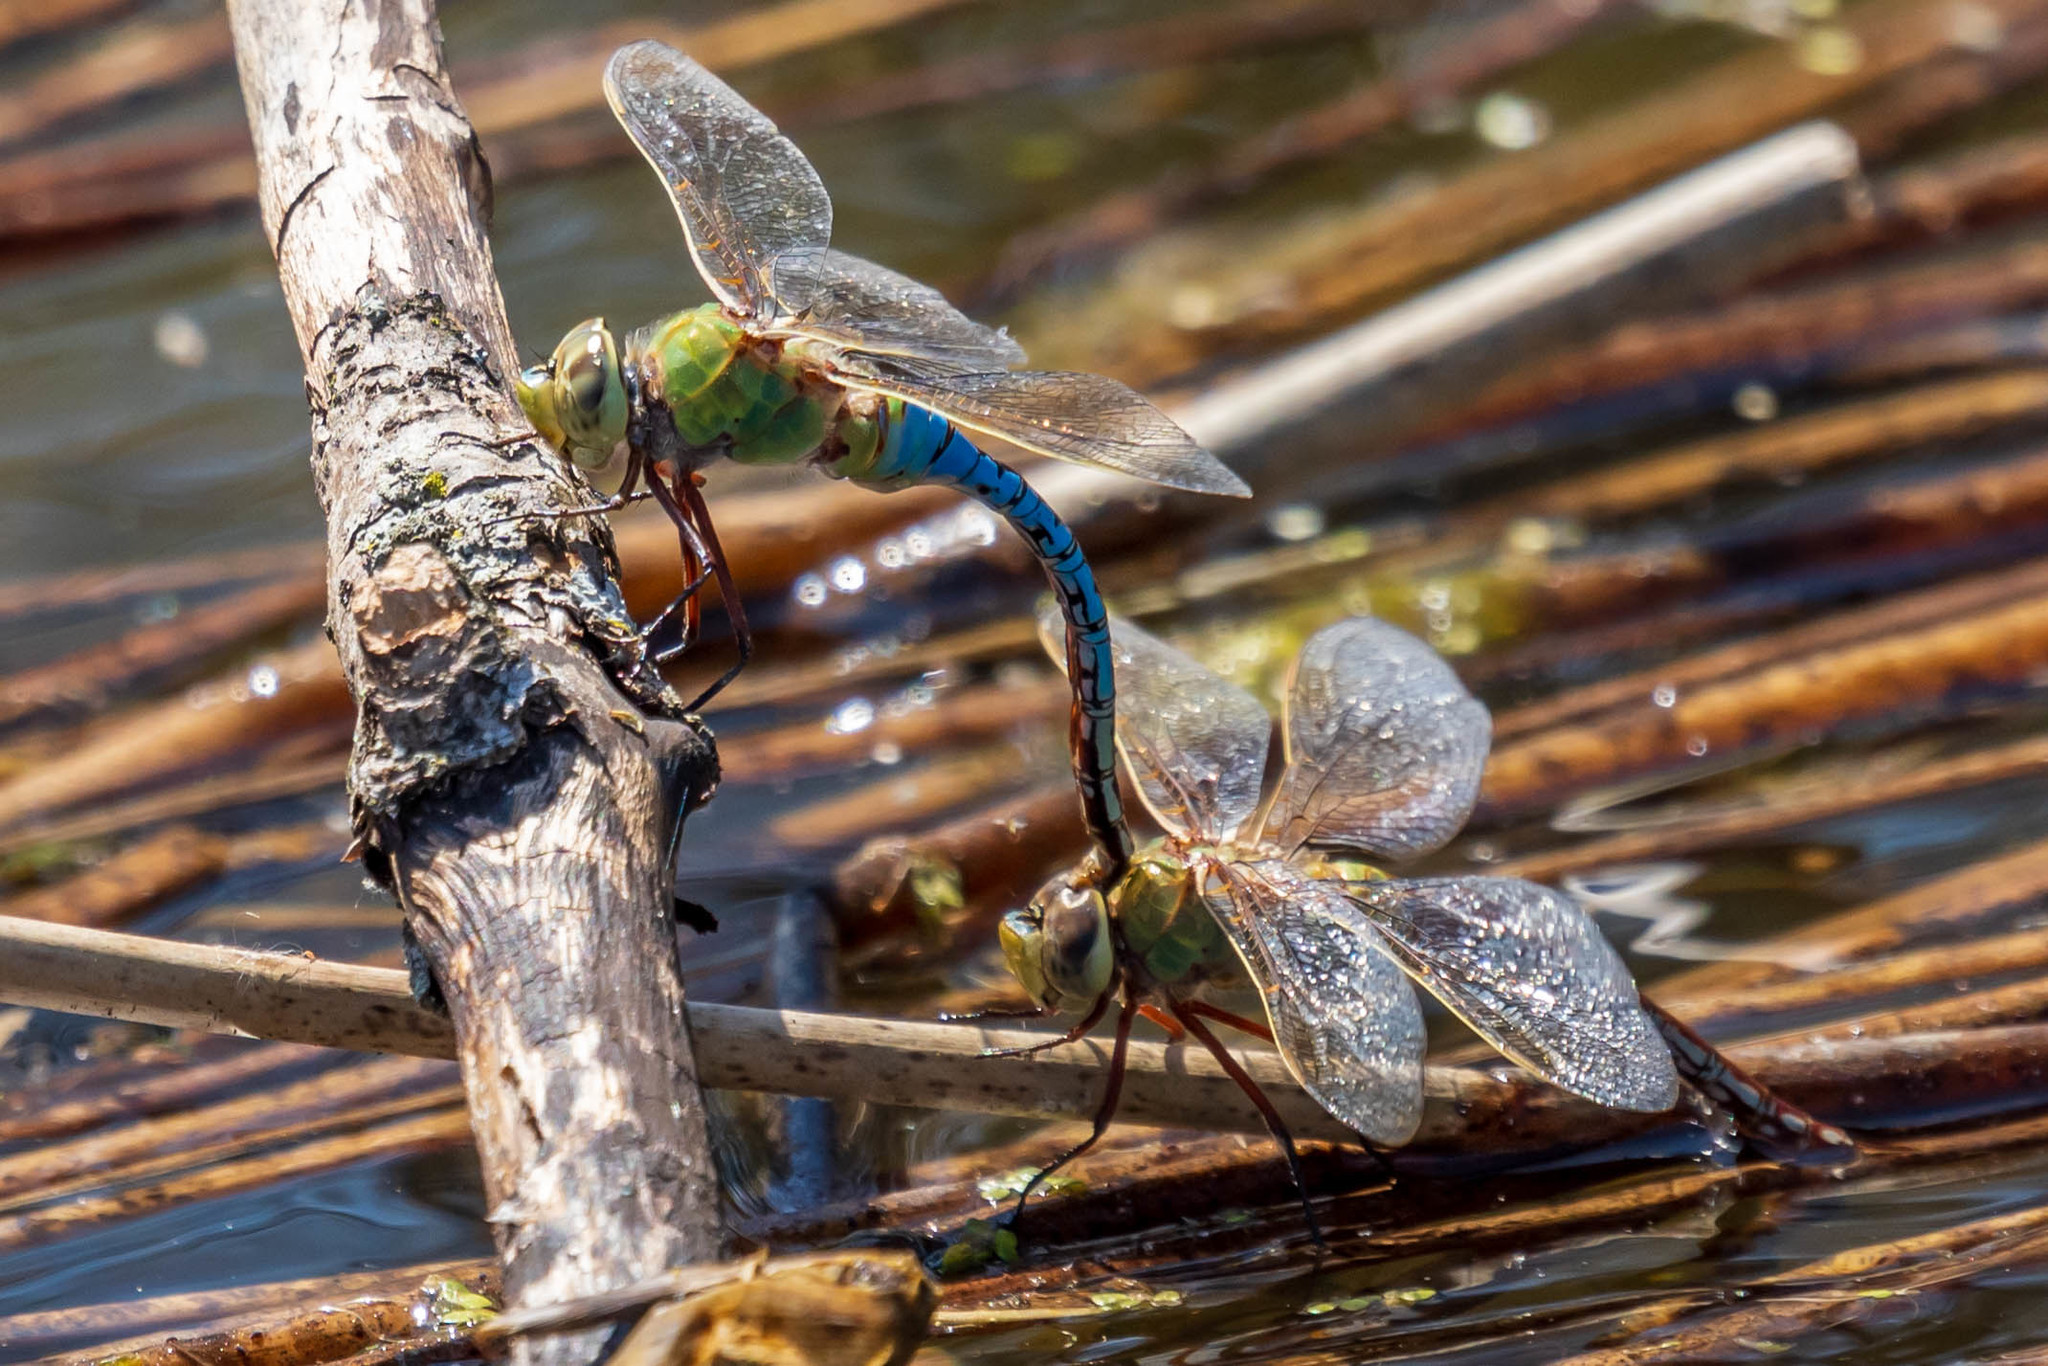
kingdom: Animalia
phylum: Arthropoda
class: Insecta
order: Odonata
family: Aeshnidae
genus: Anax
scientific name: Anax junius
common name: Common green darner
